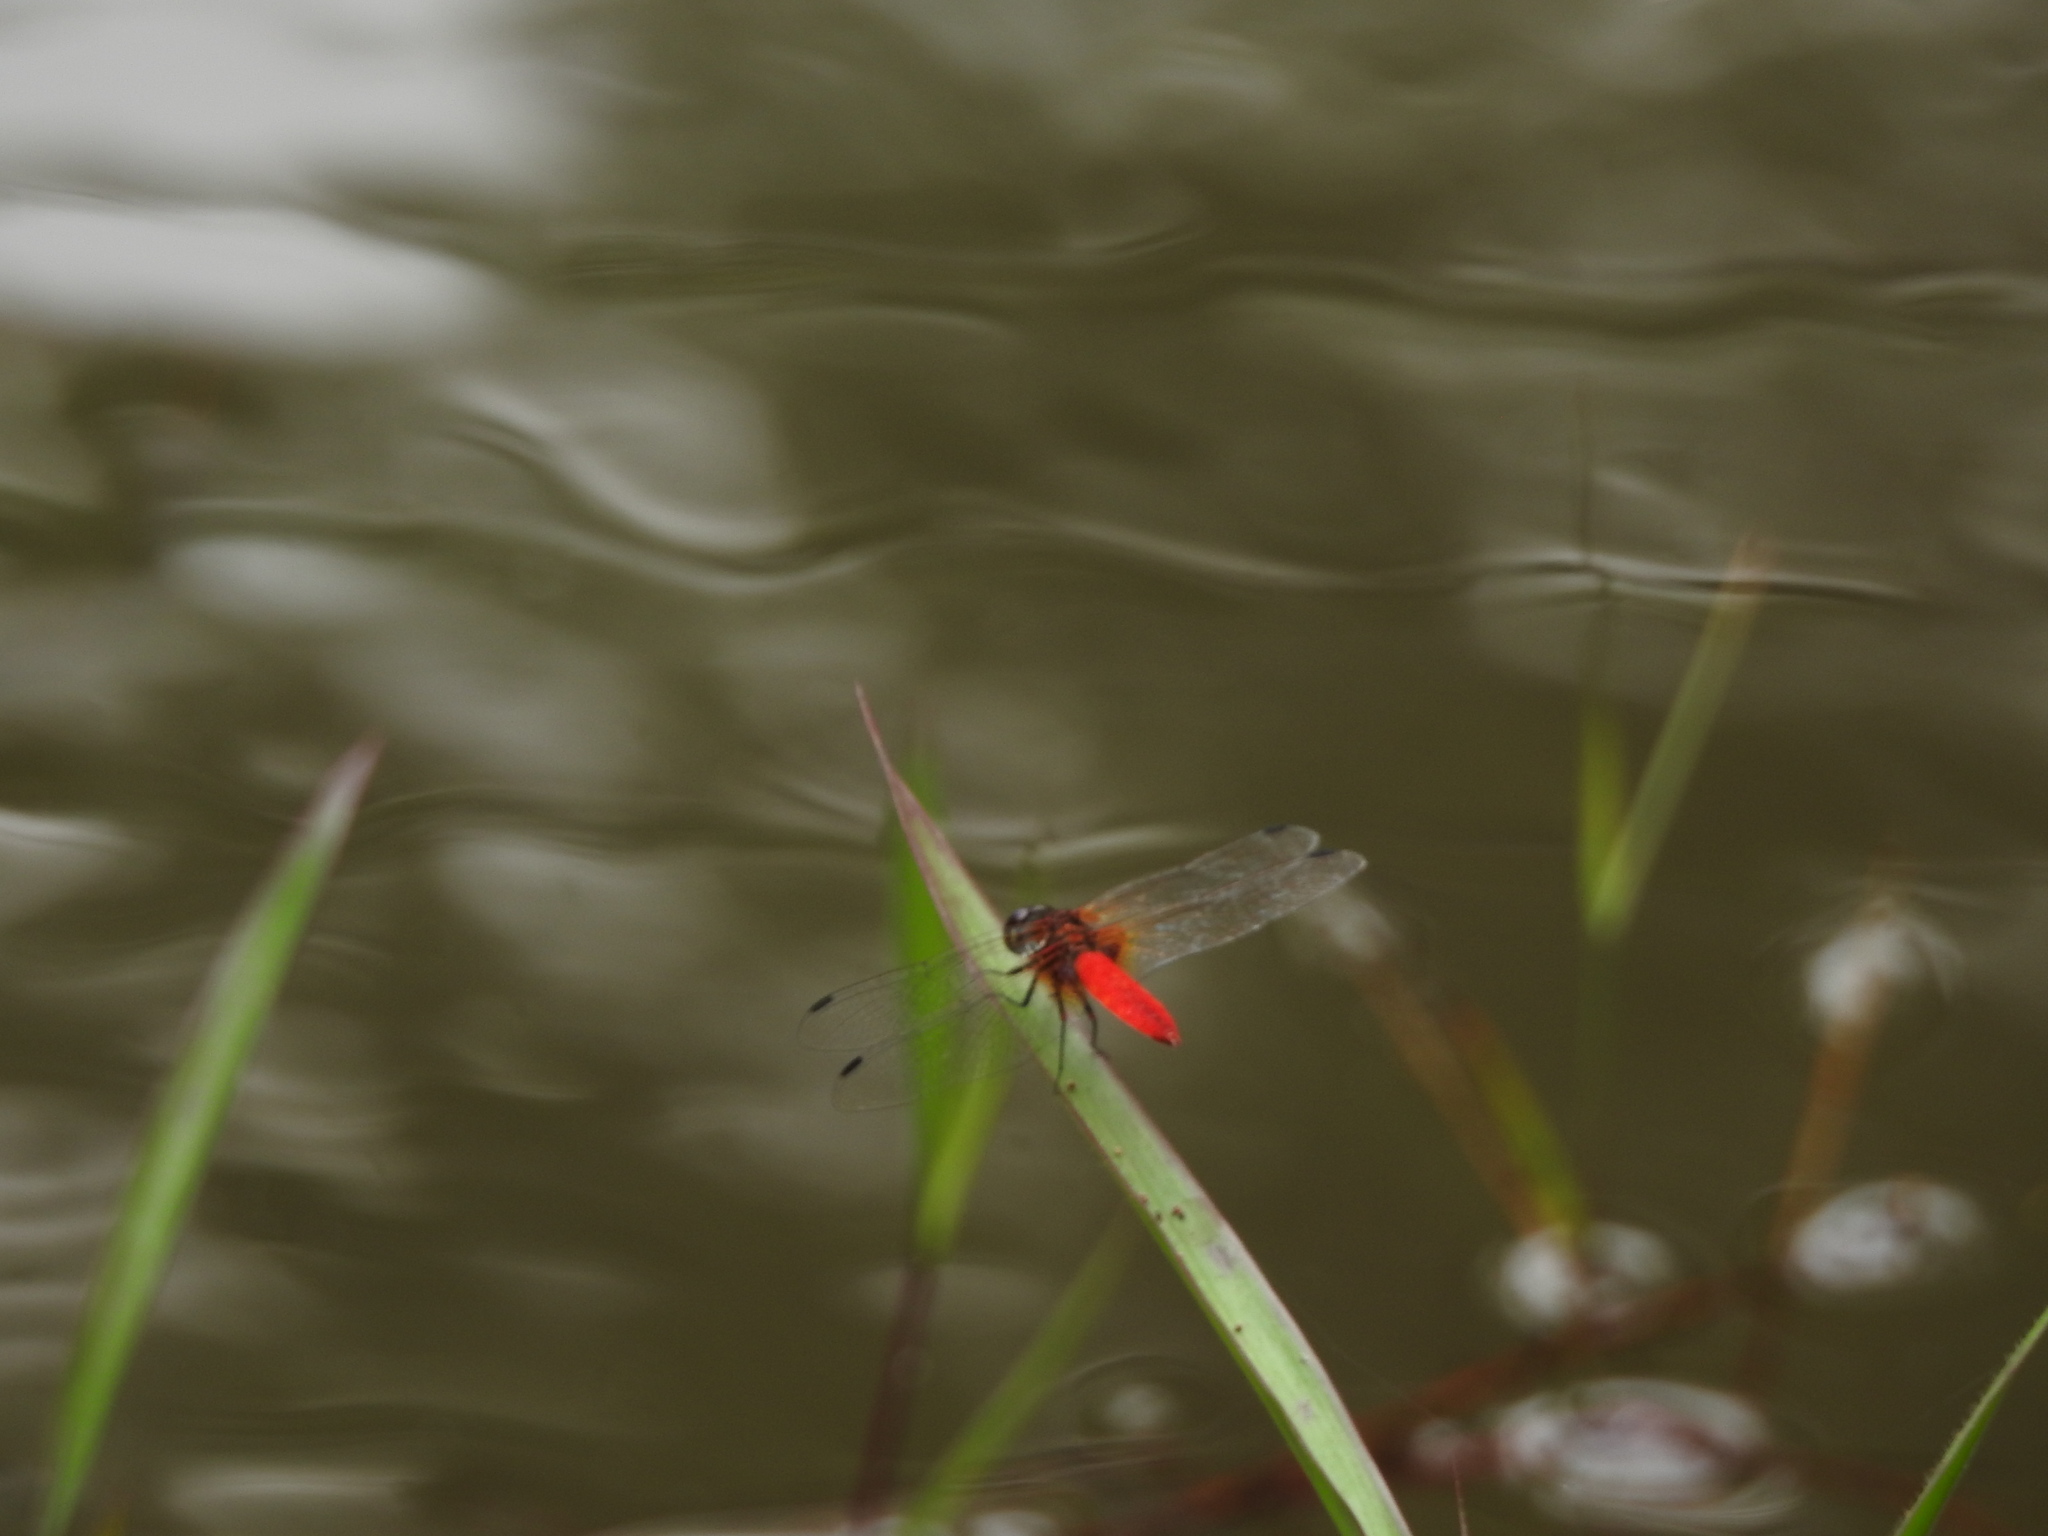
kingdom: Animalia
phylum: Arthropoda
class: Insecta
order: Odonata
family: Libellulidae
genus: Aethriamanta
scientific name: Aethriamanta brevipennis
